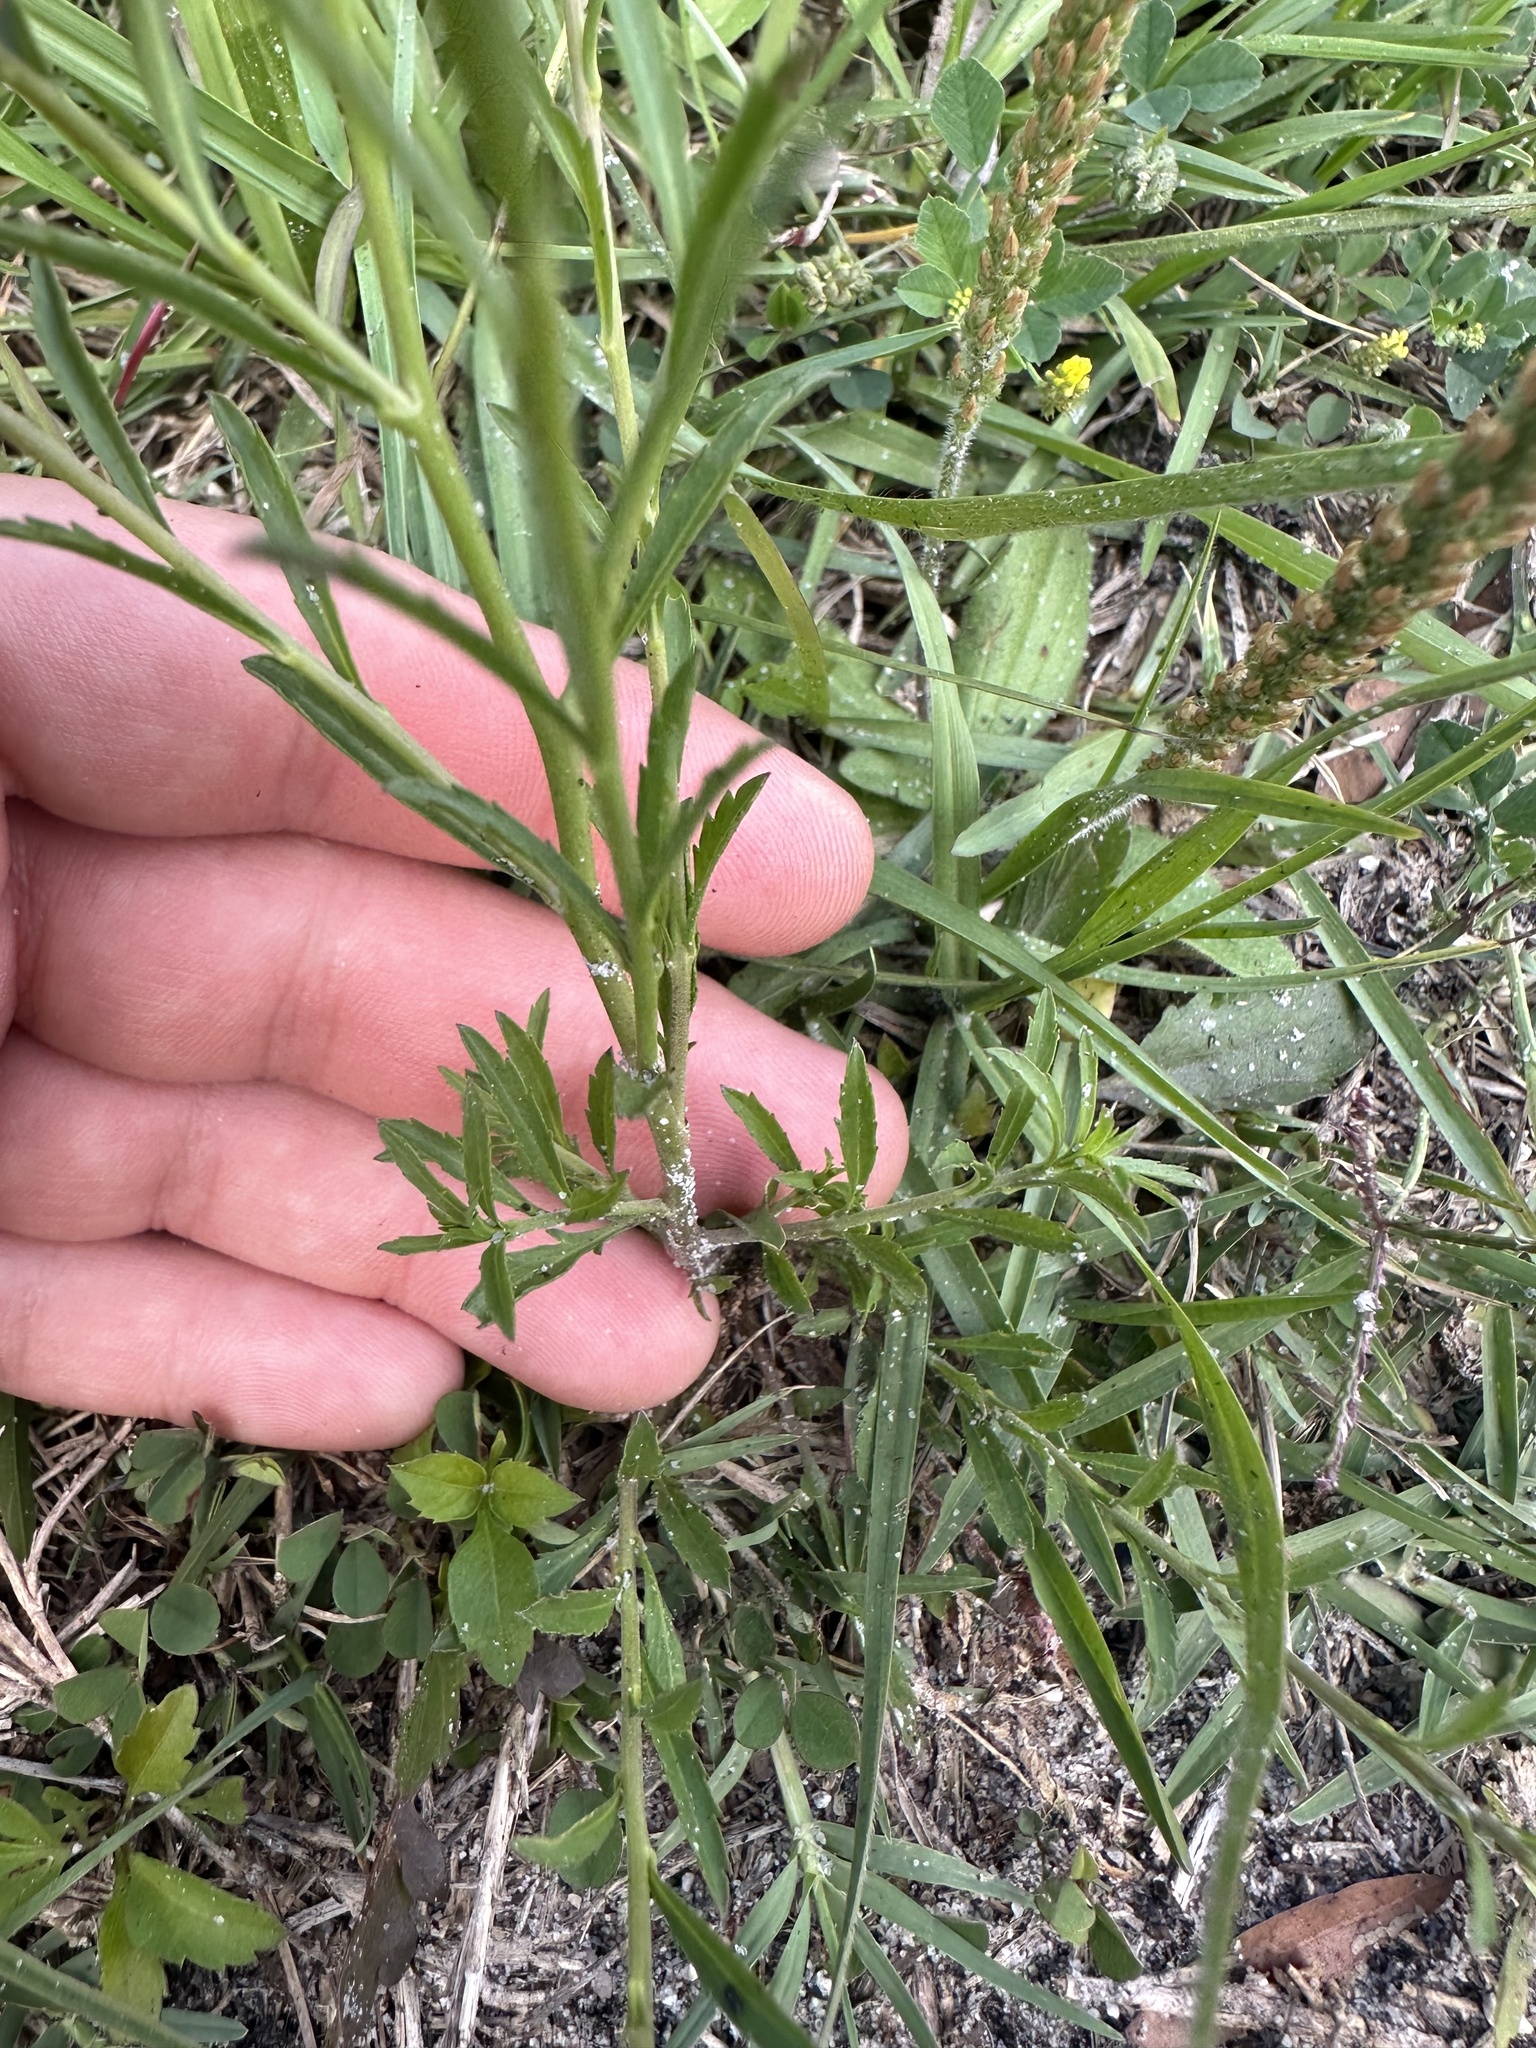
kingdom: Plantae
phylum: Tracheophyta
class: Magnoliopsida
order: Brassicales
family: Brassicaceae
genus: Lepidium
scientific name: Lepidium virginicum
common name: Least pepperwort
